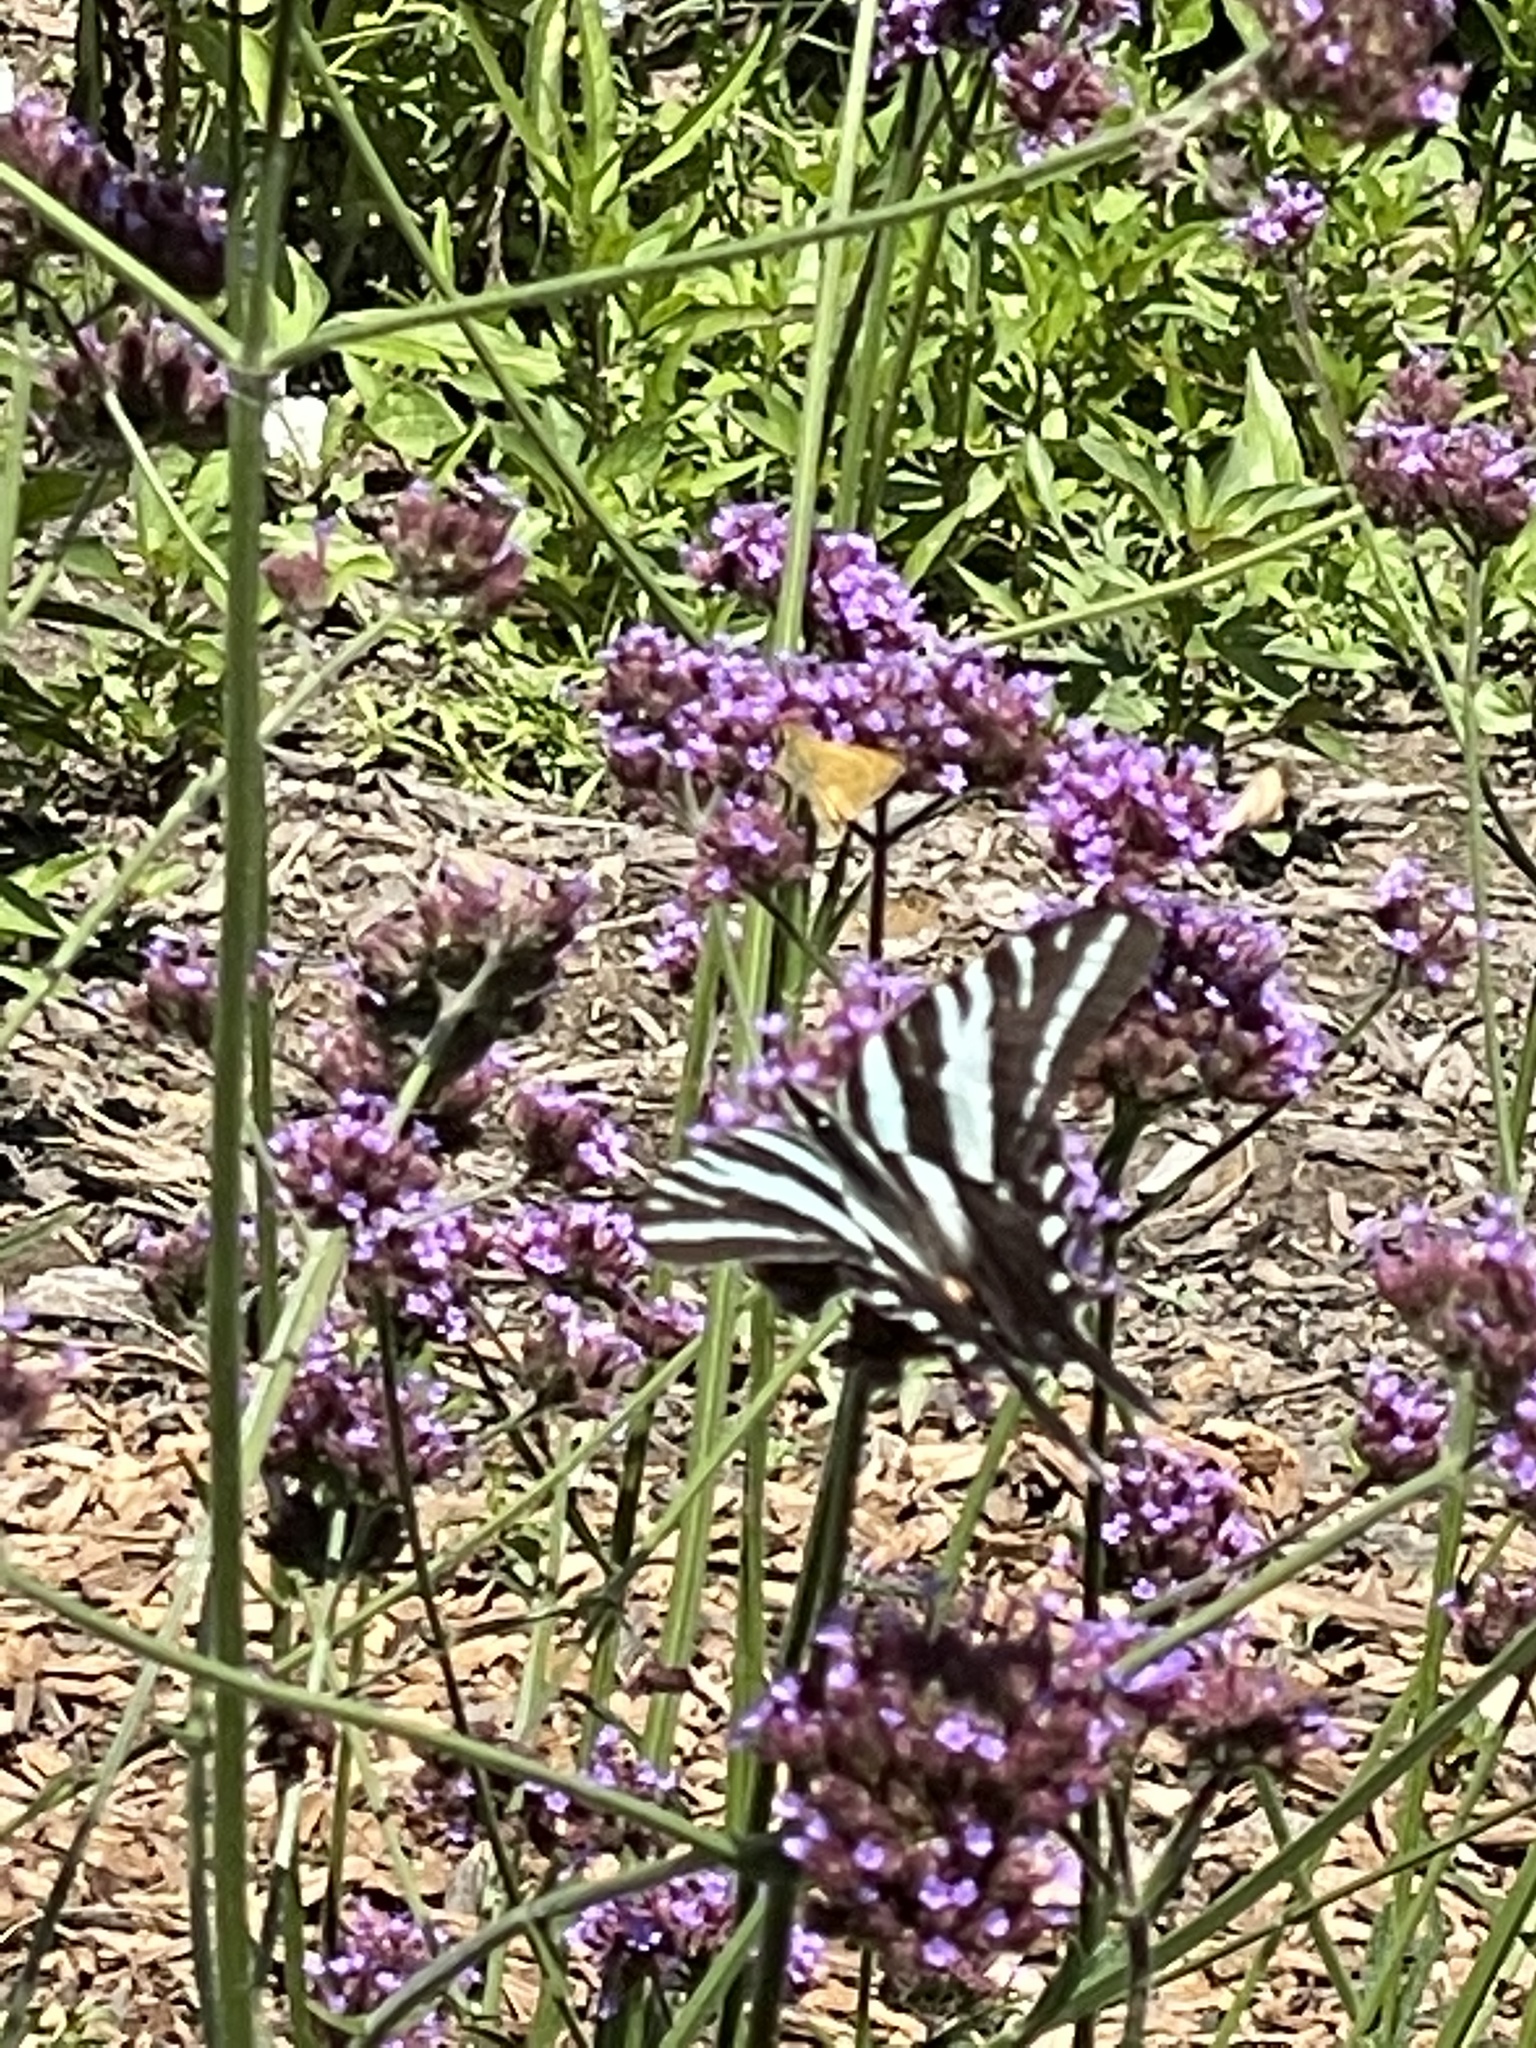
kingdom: Animalia
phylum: Arthropoda
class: Insecta
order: Lepidoptera
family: Papilionidae
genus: Protographium
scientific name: Protographium marcellus
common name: Zebra swallowtail
